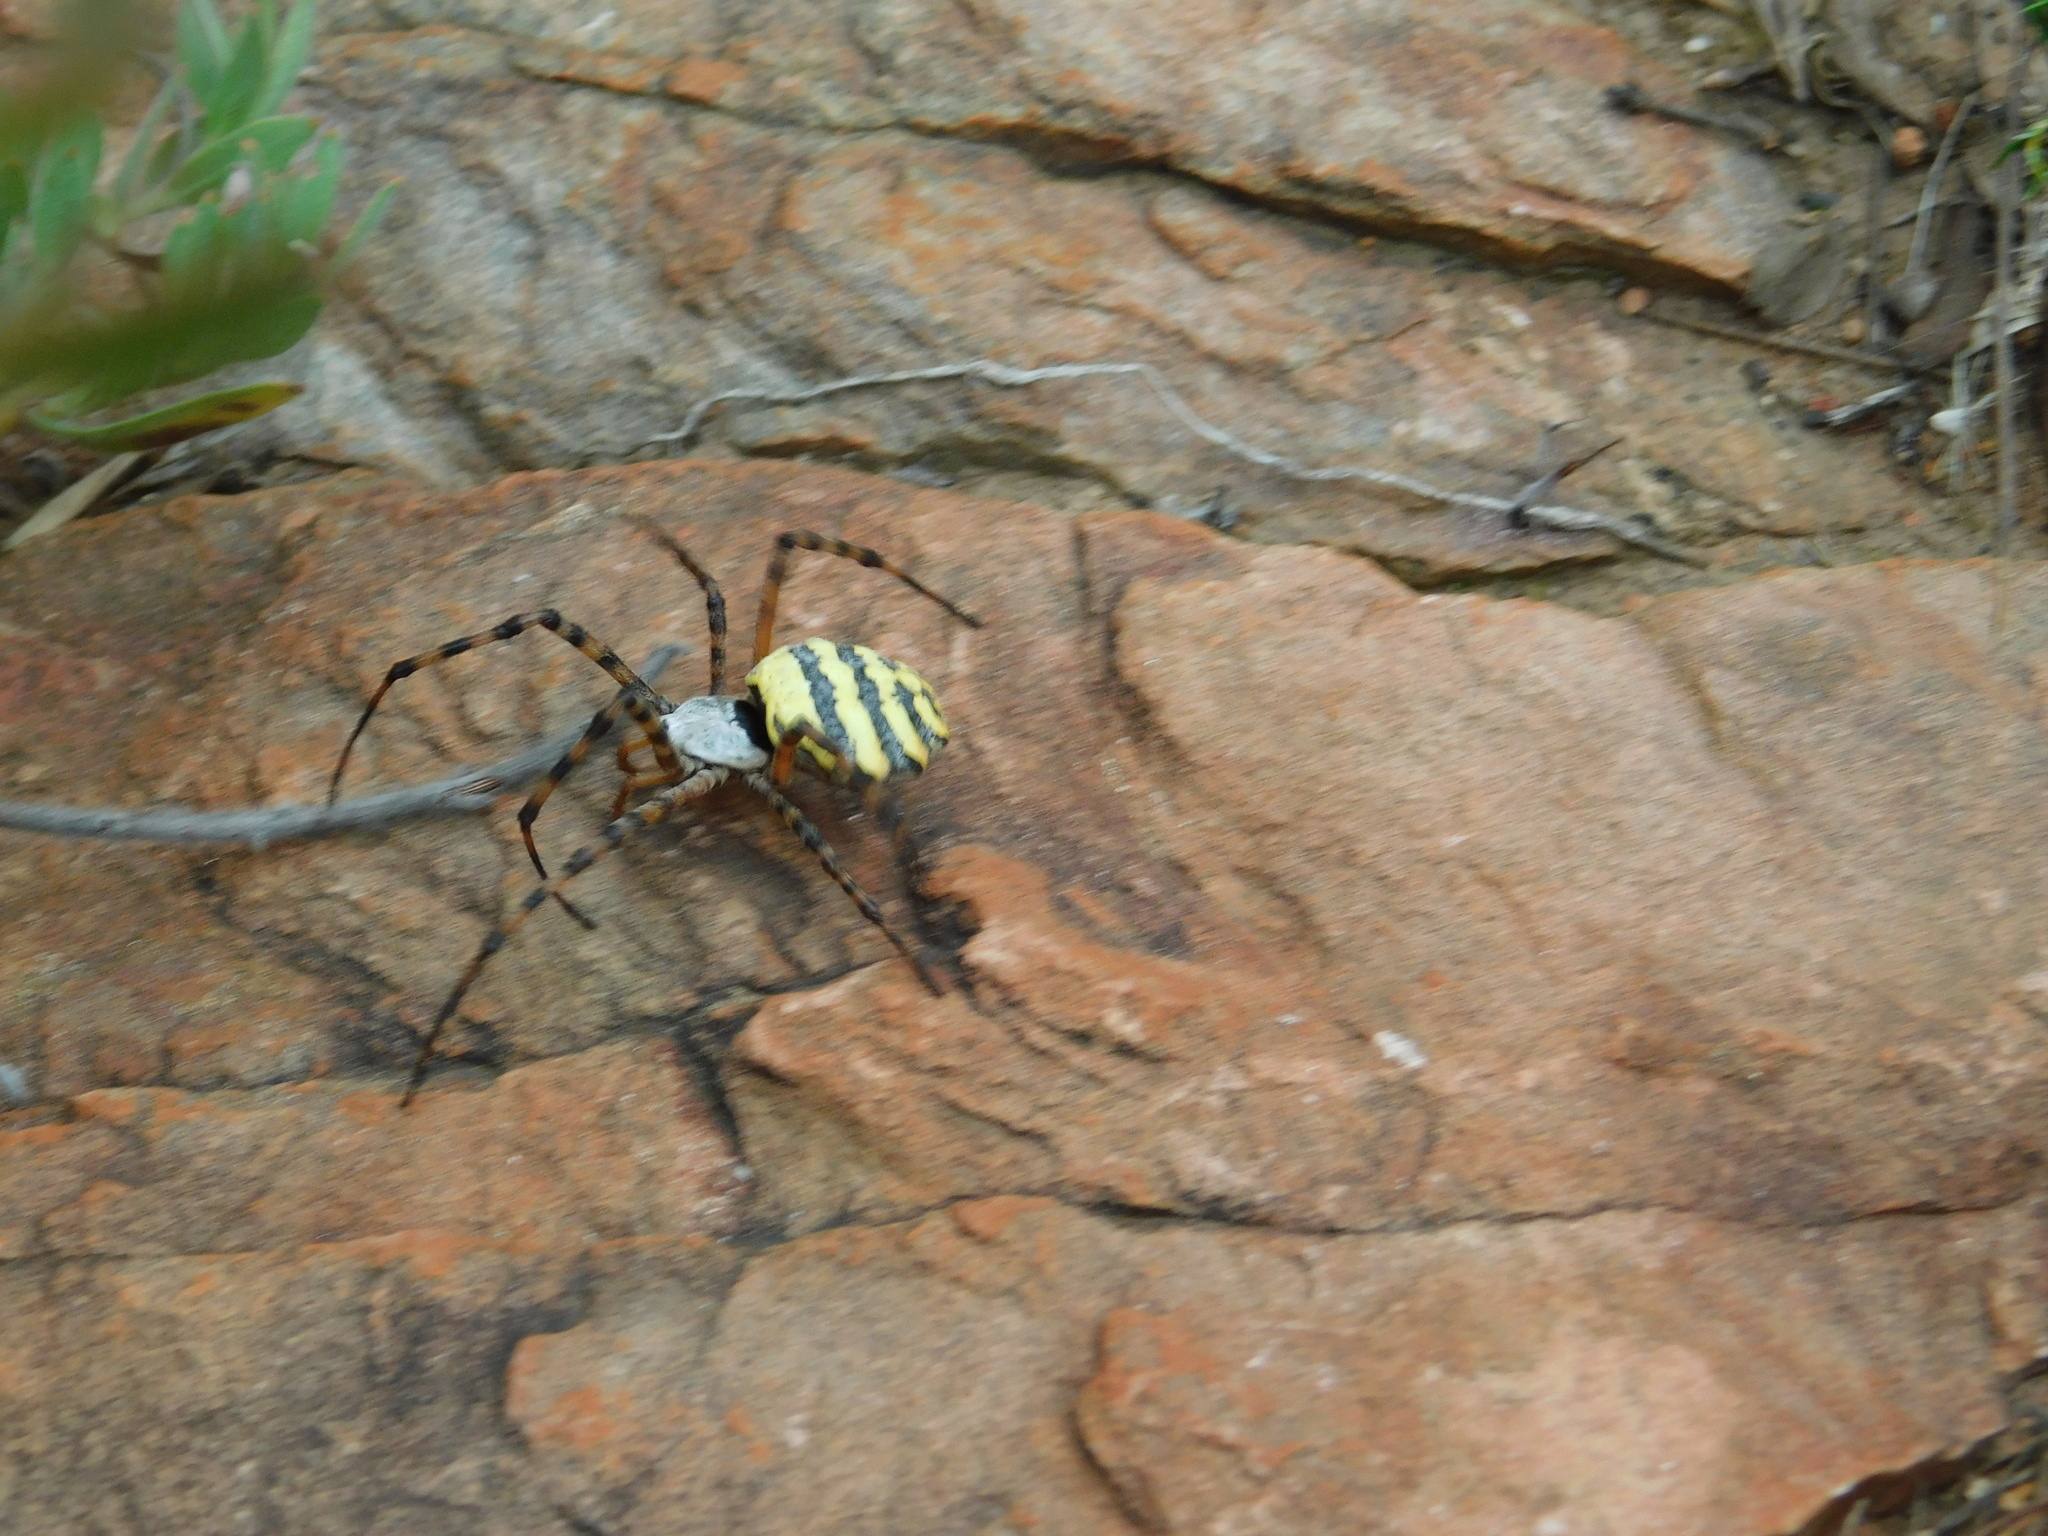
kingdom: Animalia
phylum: Arthropoda
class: Arachnida
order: Araneae
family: Araneidae
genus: Argiope
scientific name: Argiope australis
